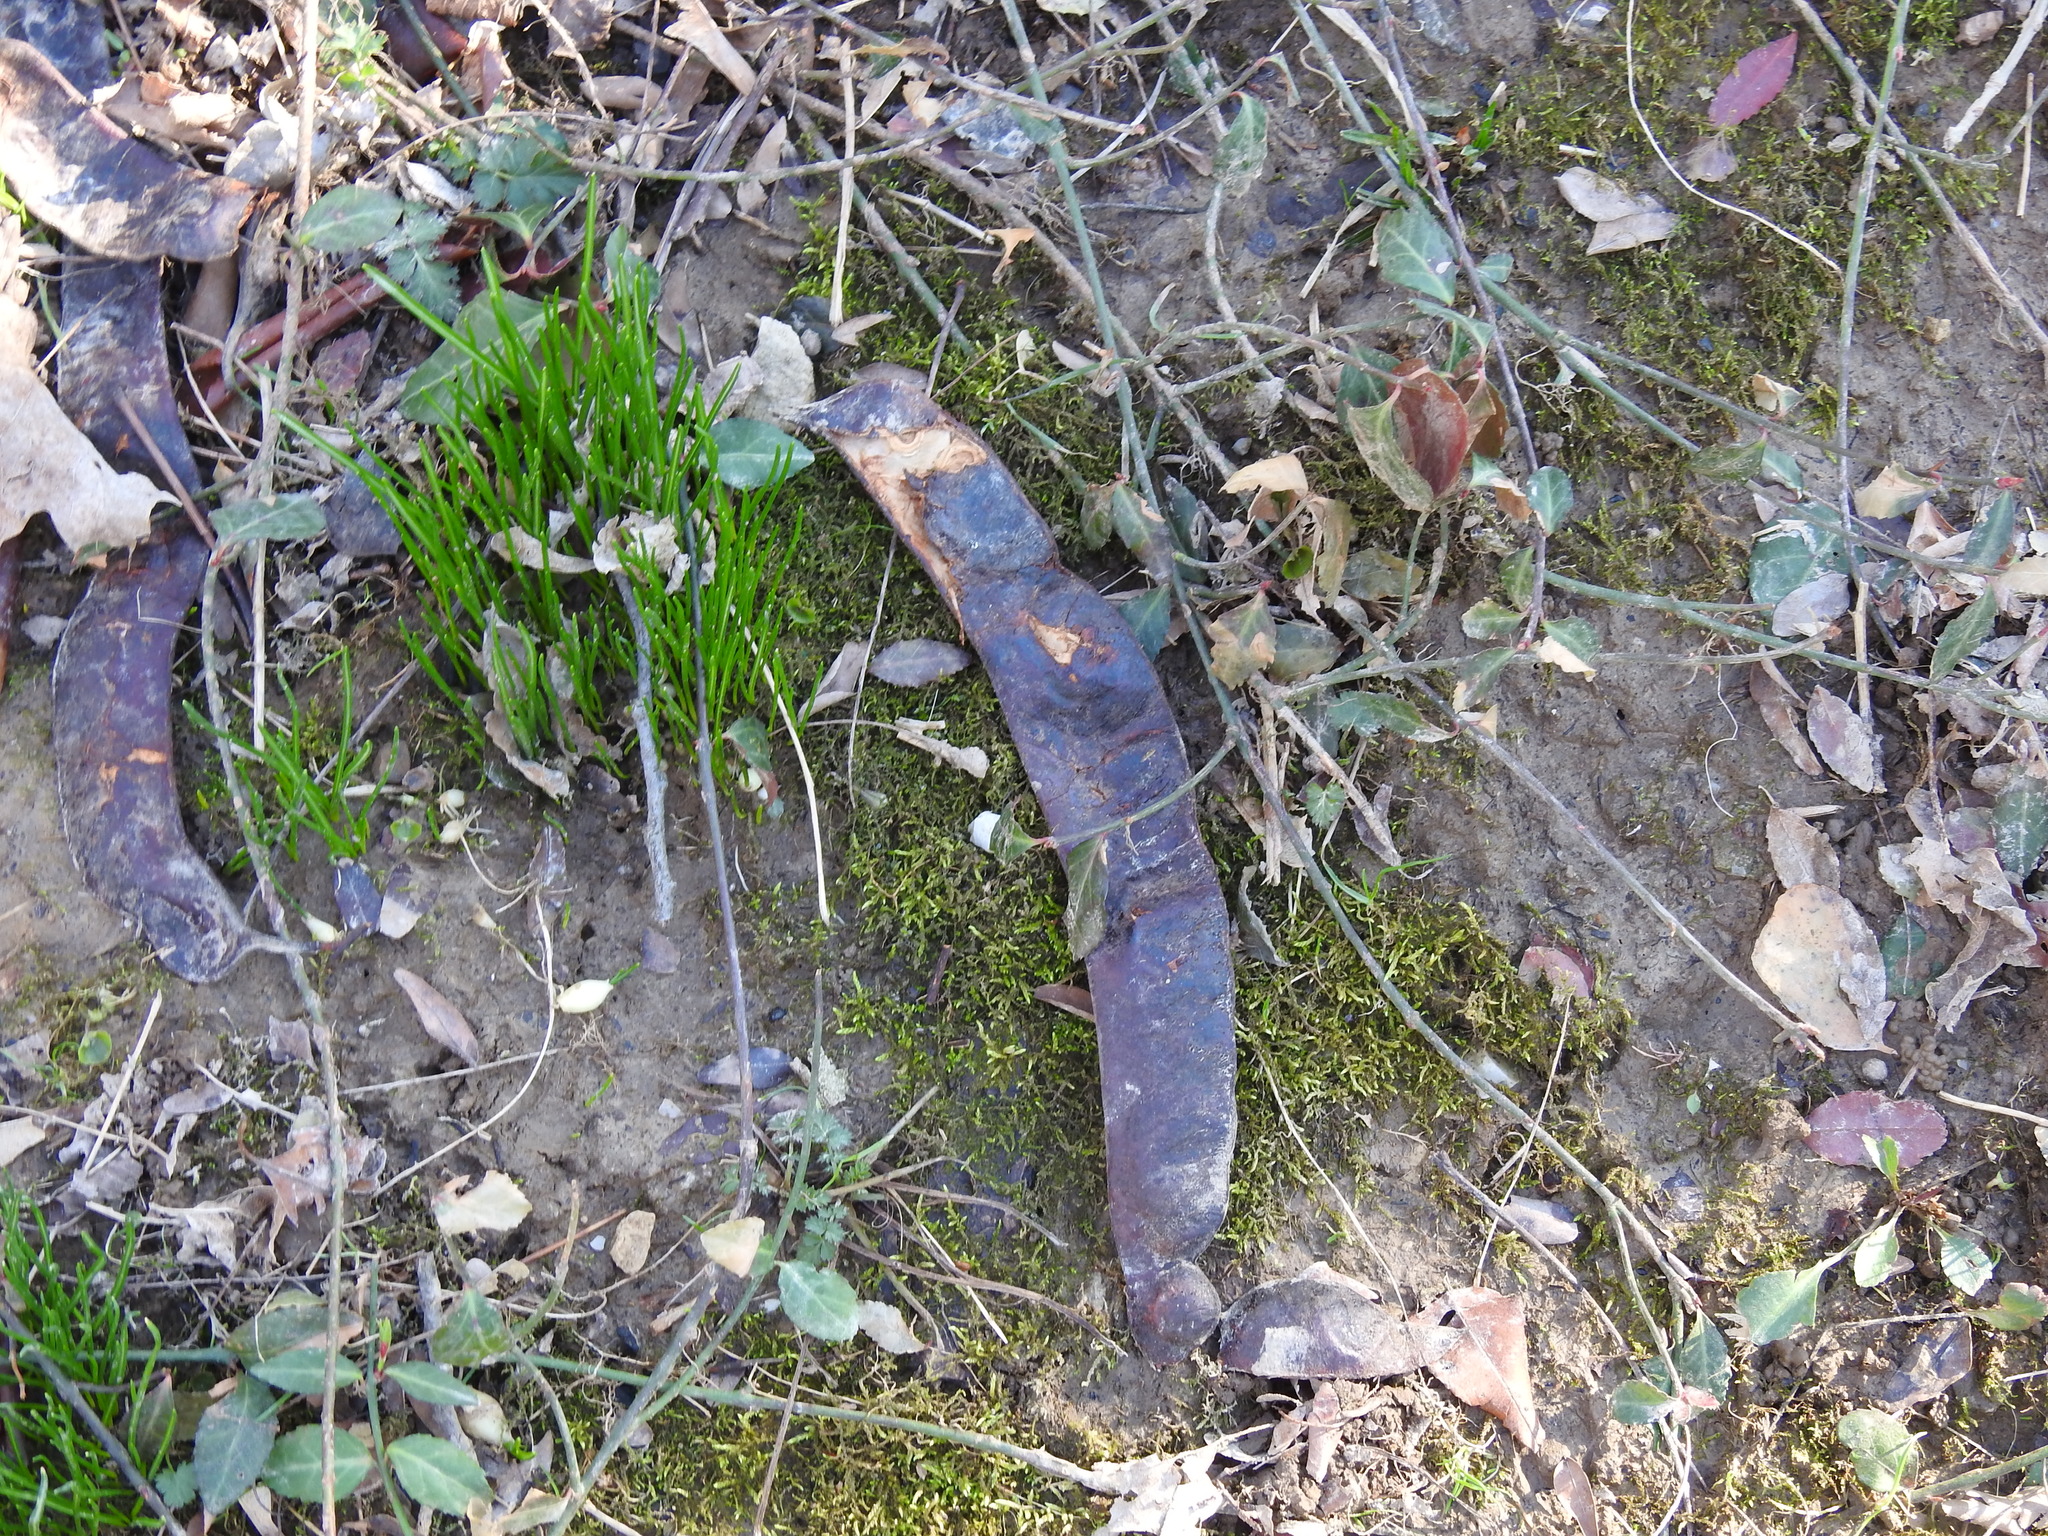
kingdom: Plantae
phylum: Tracheophyta
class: Magnoliopsida
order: Fabales
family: Fabaceae
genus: Gleditsia
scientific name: Gleditsia triacanthos
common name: Common honeylocust
